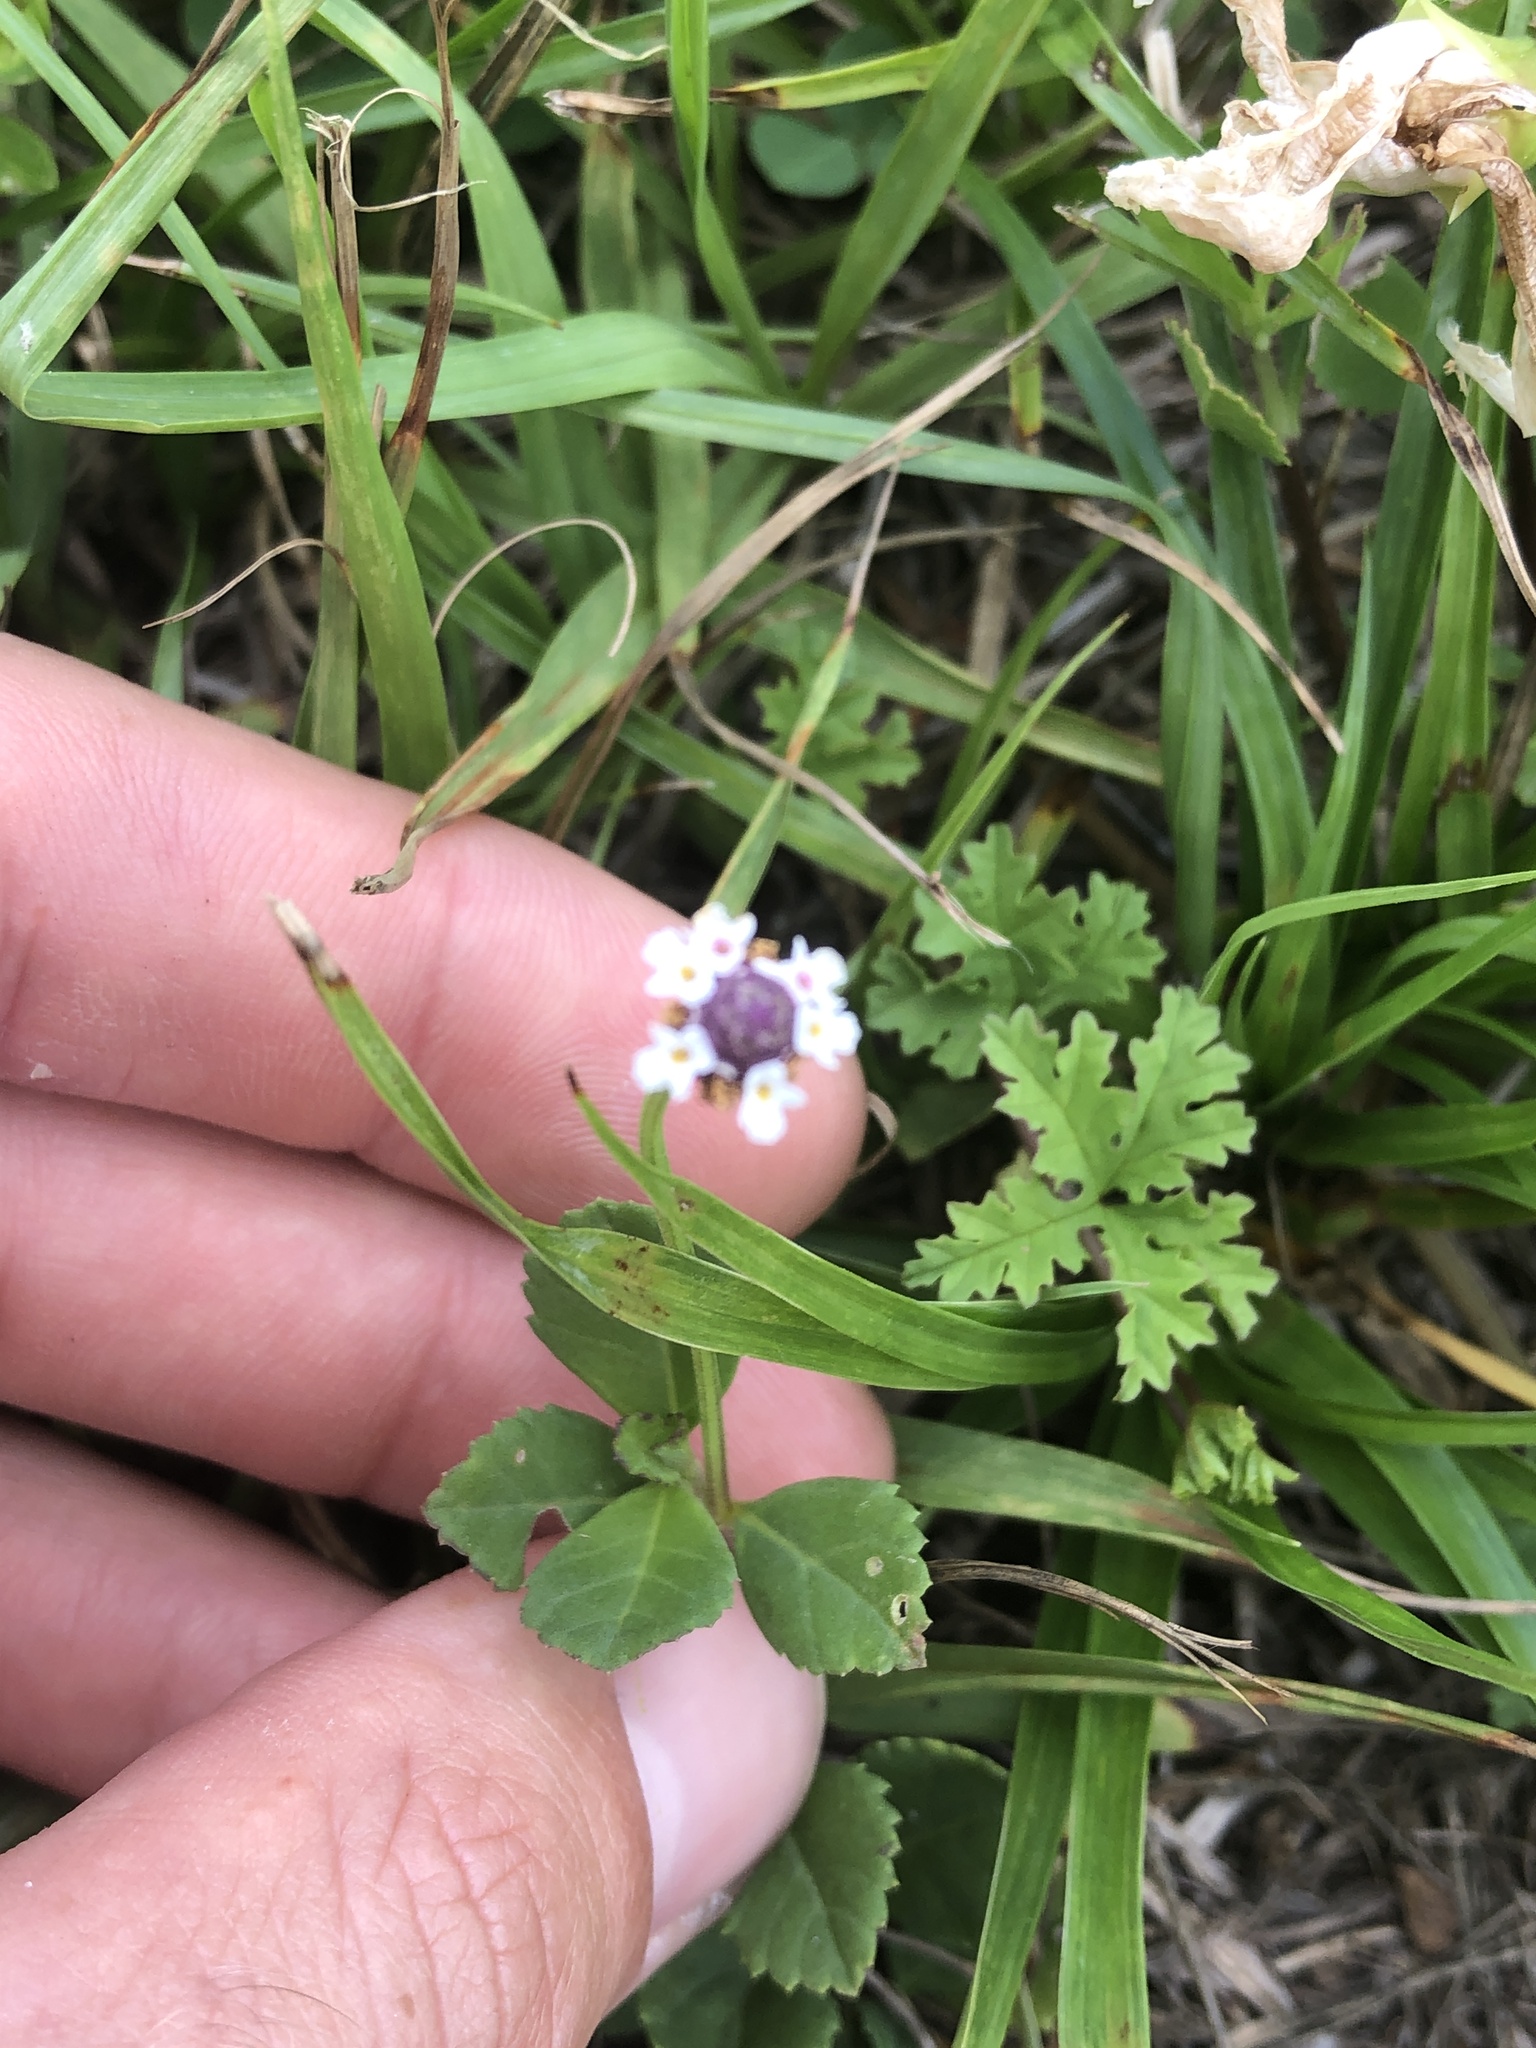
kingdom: Plantae
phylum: Tracheophyta
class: Magnoliopsida
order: Lamiales
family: Verbenaceae
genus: Phyla
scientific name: Phyla nodiflora
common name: Frogfruit
